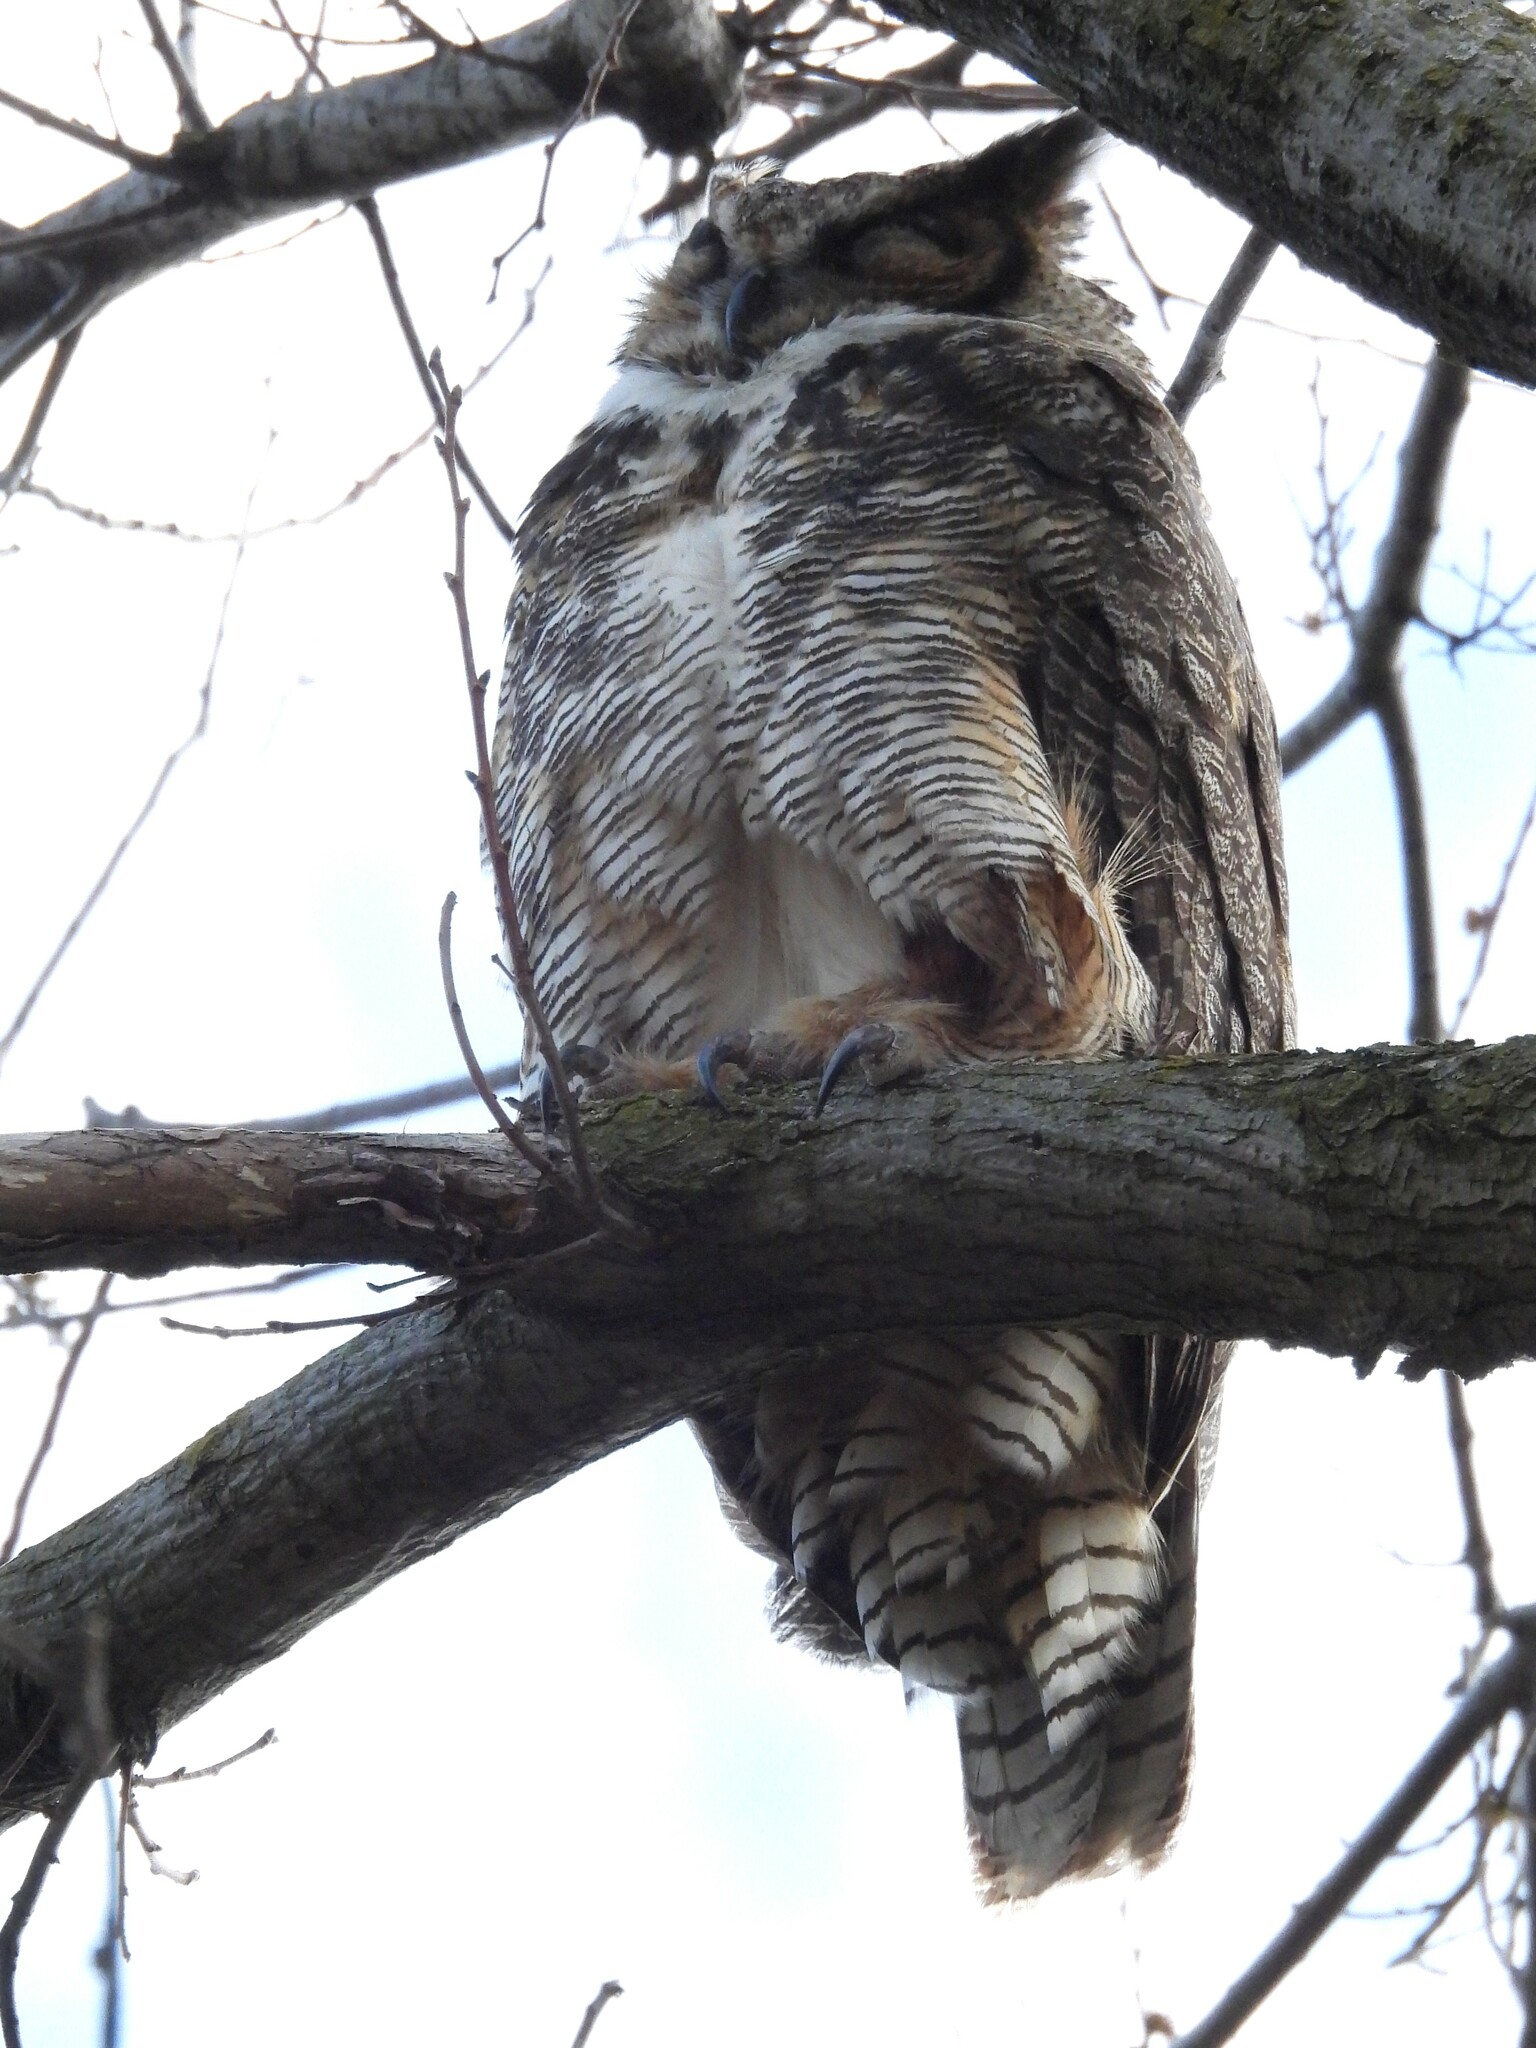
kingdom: Animalia
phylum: Chordata
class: Aves
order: Strigiformes
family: Strigidae
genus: Bubo
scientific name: Bubo virginianus
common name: Great horned owl
